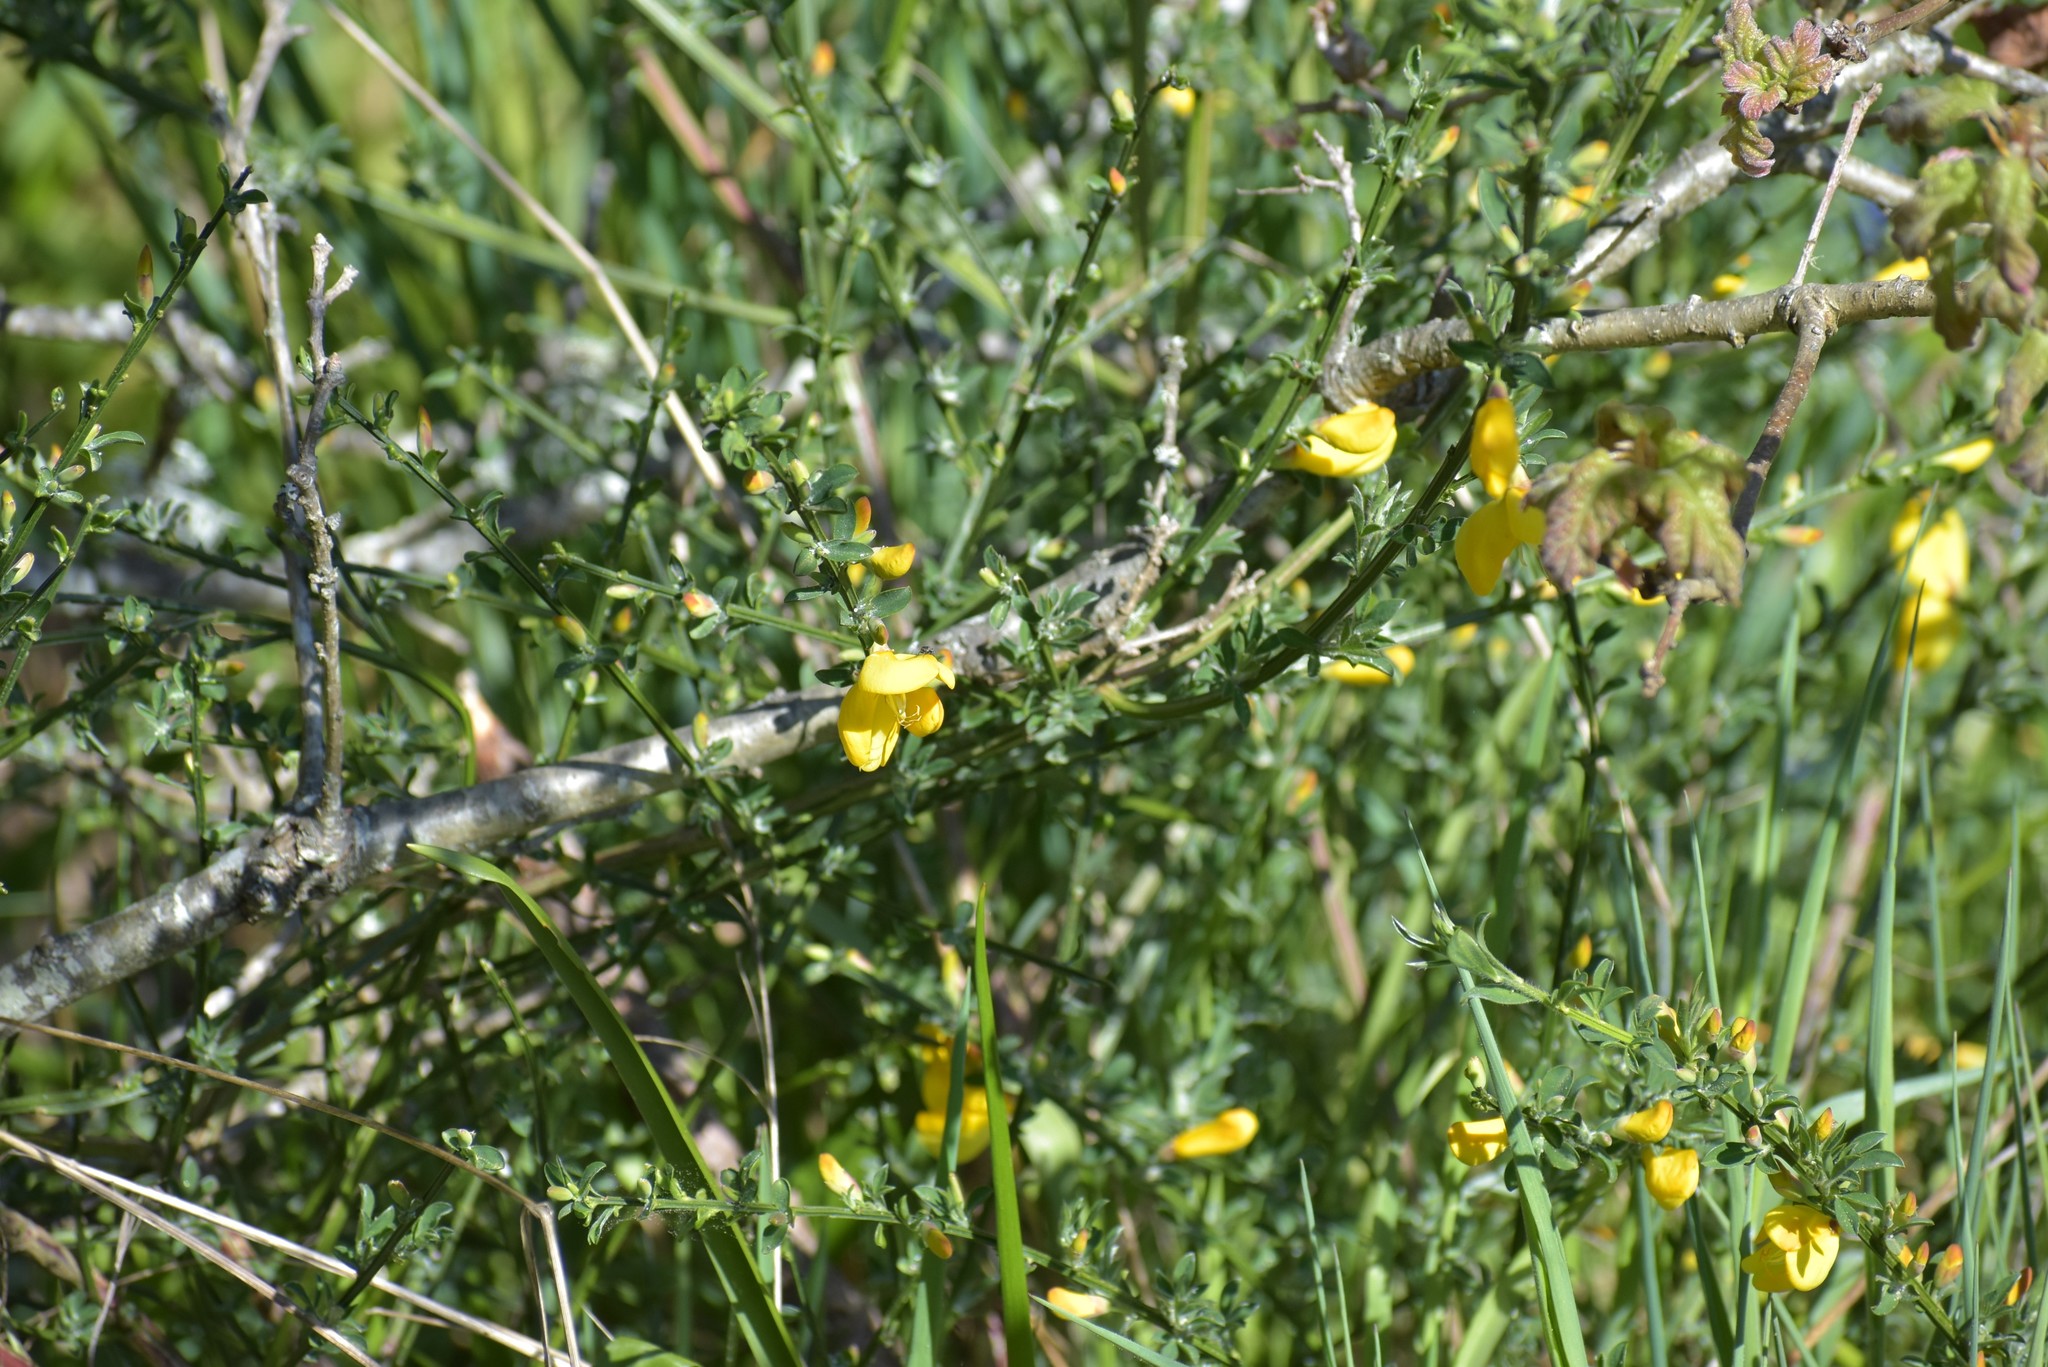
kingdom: Plantae
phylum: Tracheophyta
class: Magnoliopsida
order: Fabales
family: Fabaceae
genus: Cytisus
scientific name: Cytisus scoparius
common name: Scotch broom
